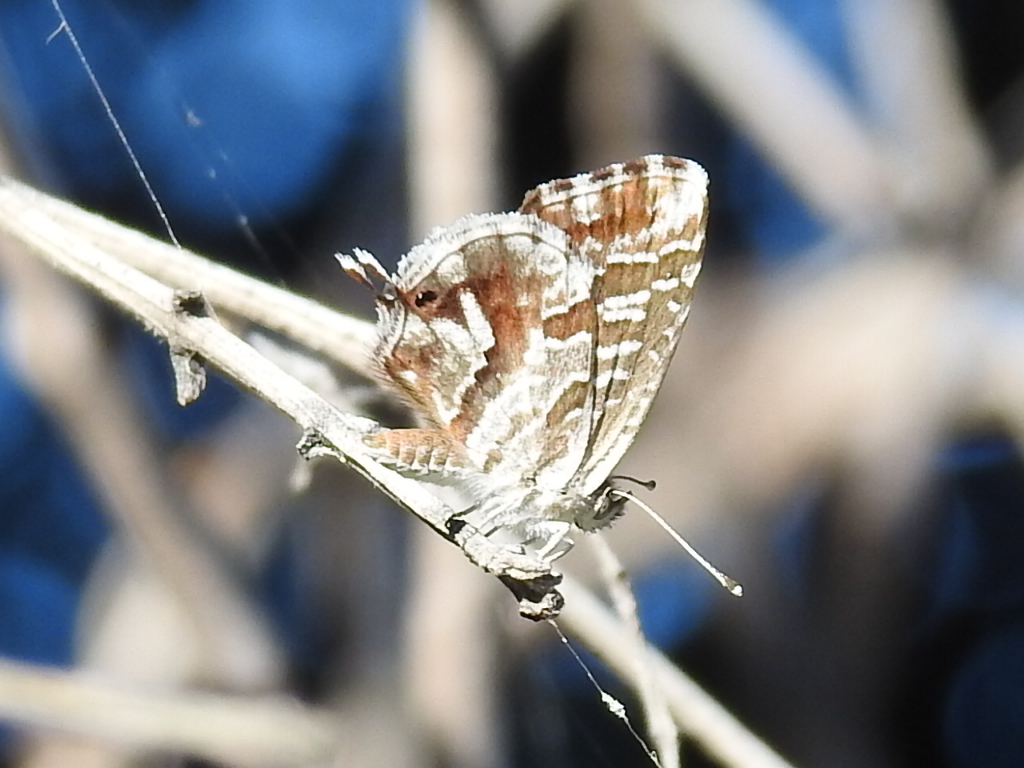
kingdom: Animalia
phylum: Arthropoda
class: Insecta
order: Lepidoptera
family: Lycaenidae
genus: Cacyreus
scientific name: Cacyreus marshalli
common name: Geranium bronze
